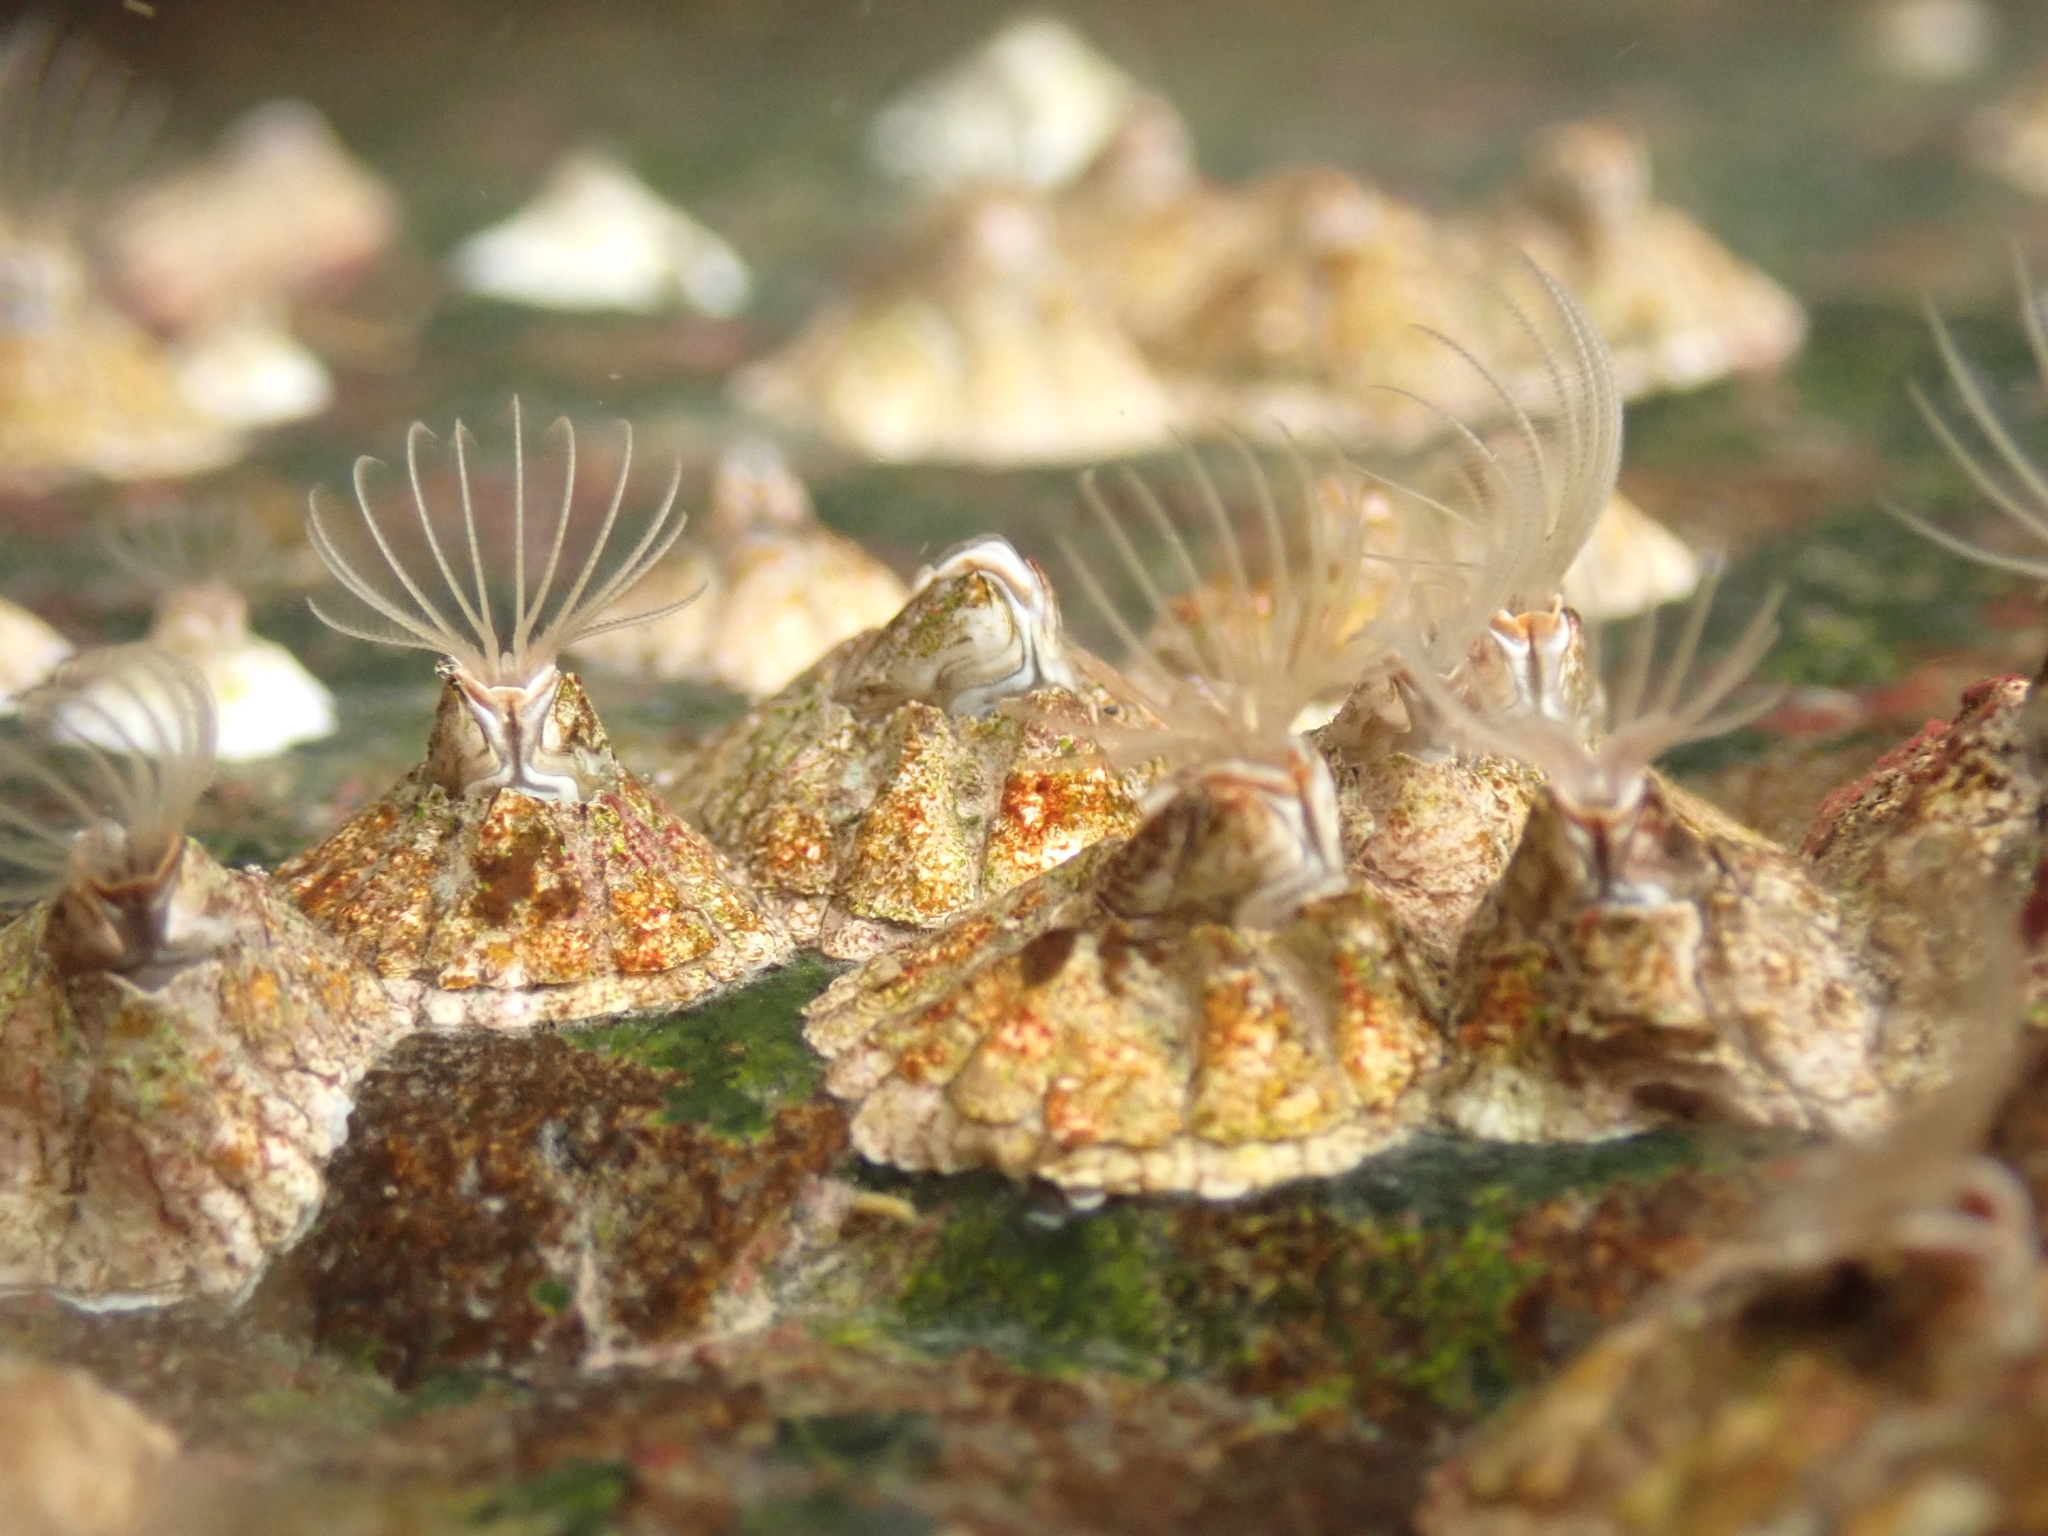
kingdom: Animalia
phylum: Arthropoda
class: Maxillopoda
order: Sessilia
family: Archaeobalanidae
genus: Semibalanus
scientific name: Semibalanus balanoides
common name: Acorn barnacle
